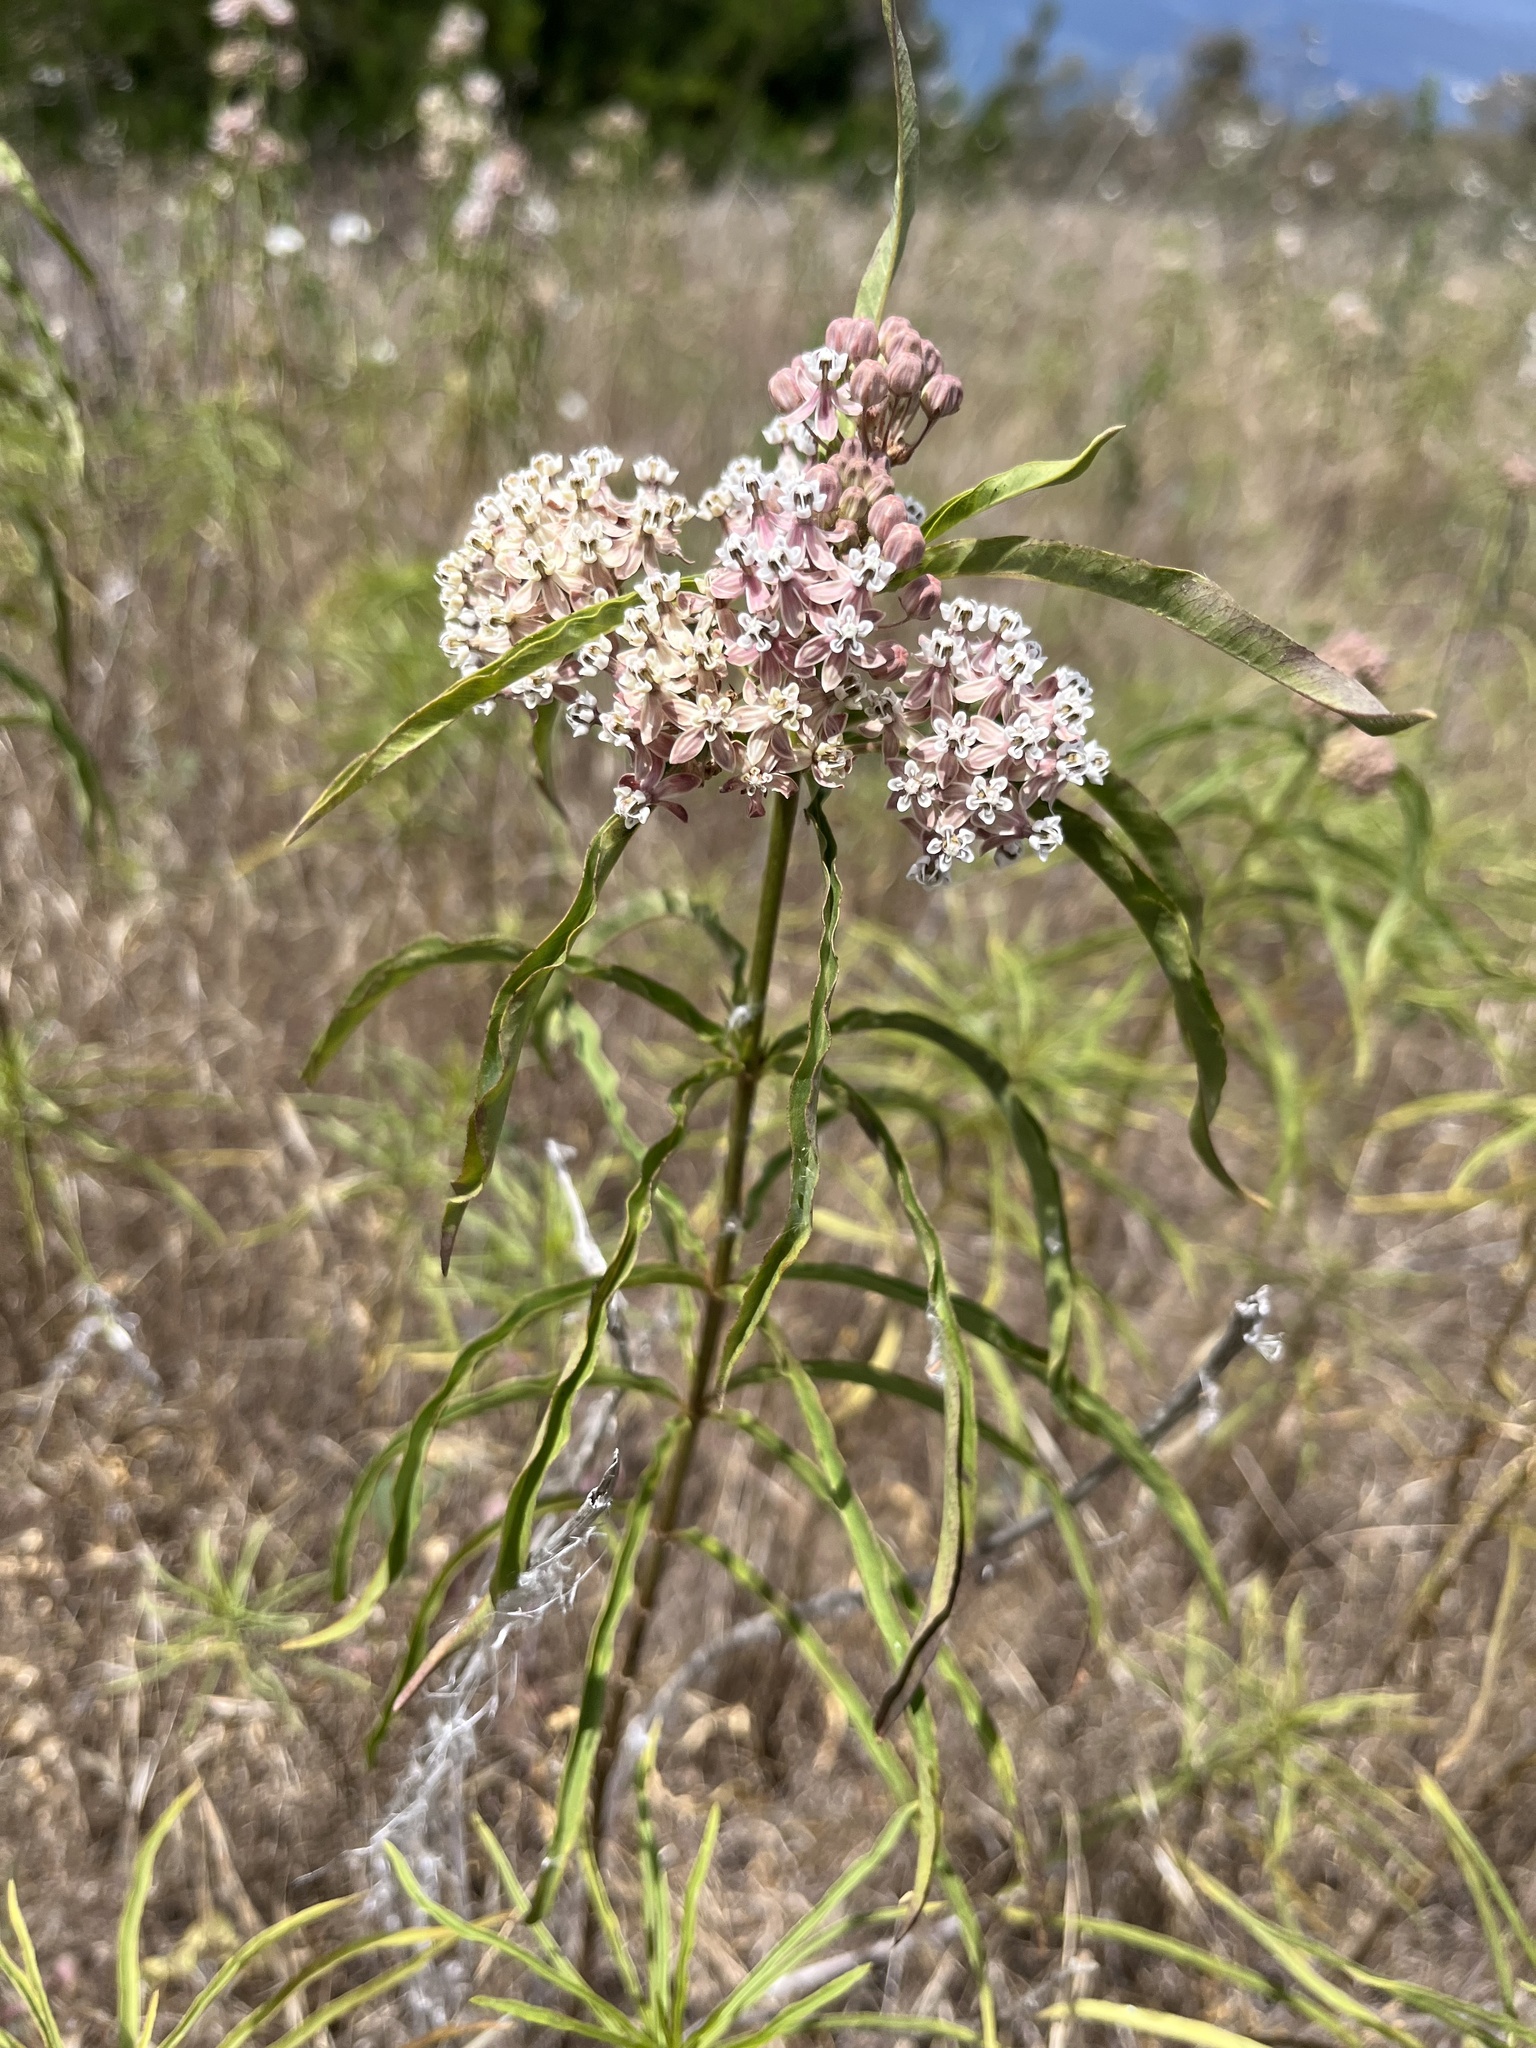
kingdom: Plantae
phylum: Tracheophyta
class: Magnoliopsida
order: Gentianales
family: Apocynaceae
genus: Asclepias
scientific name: Asclepias fascicularis
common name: Mexican milkweed
